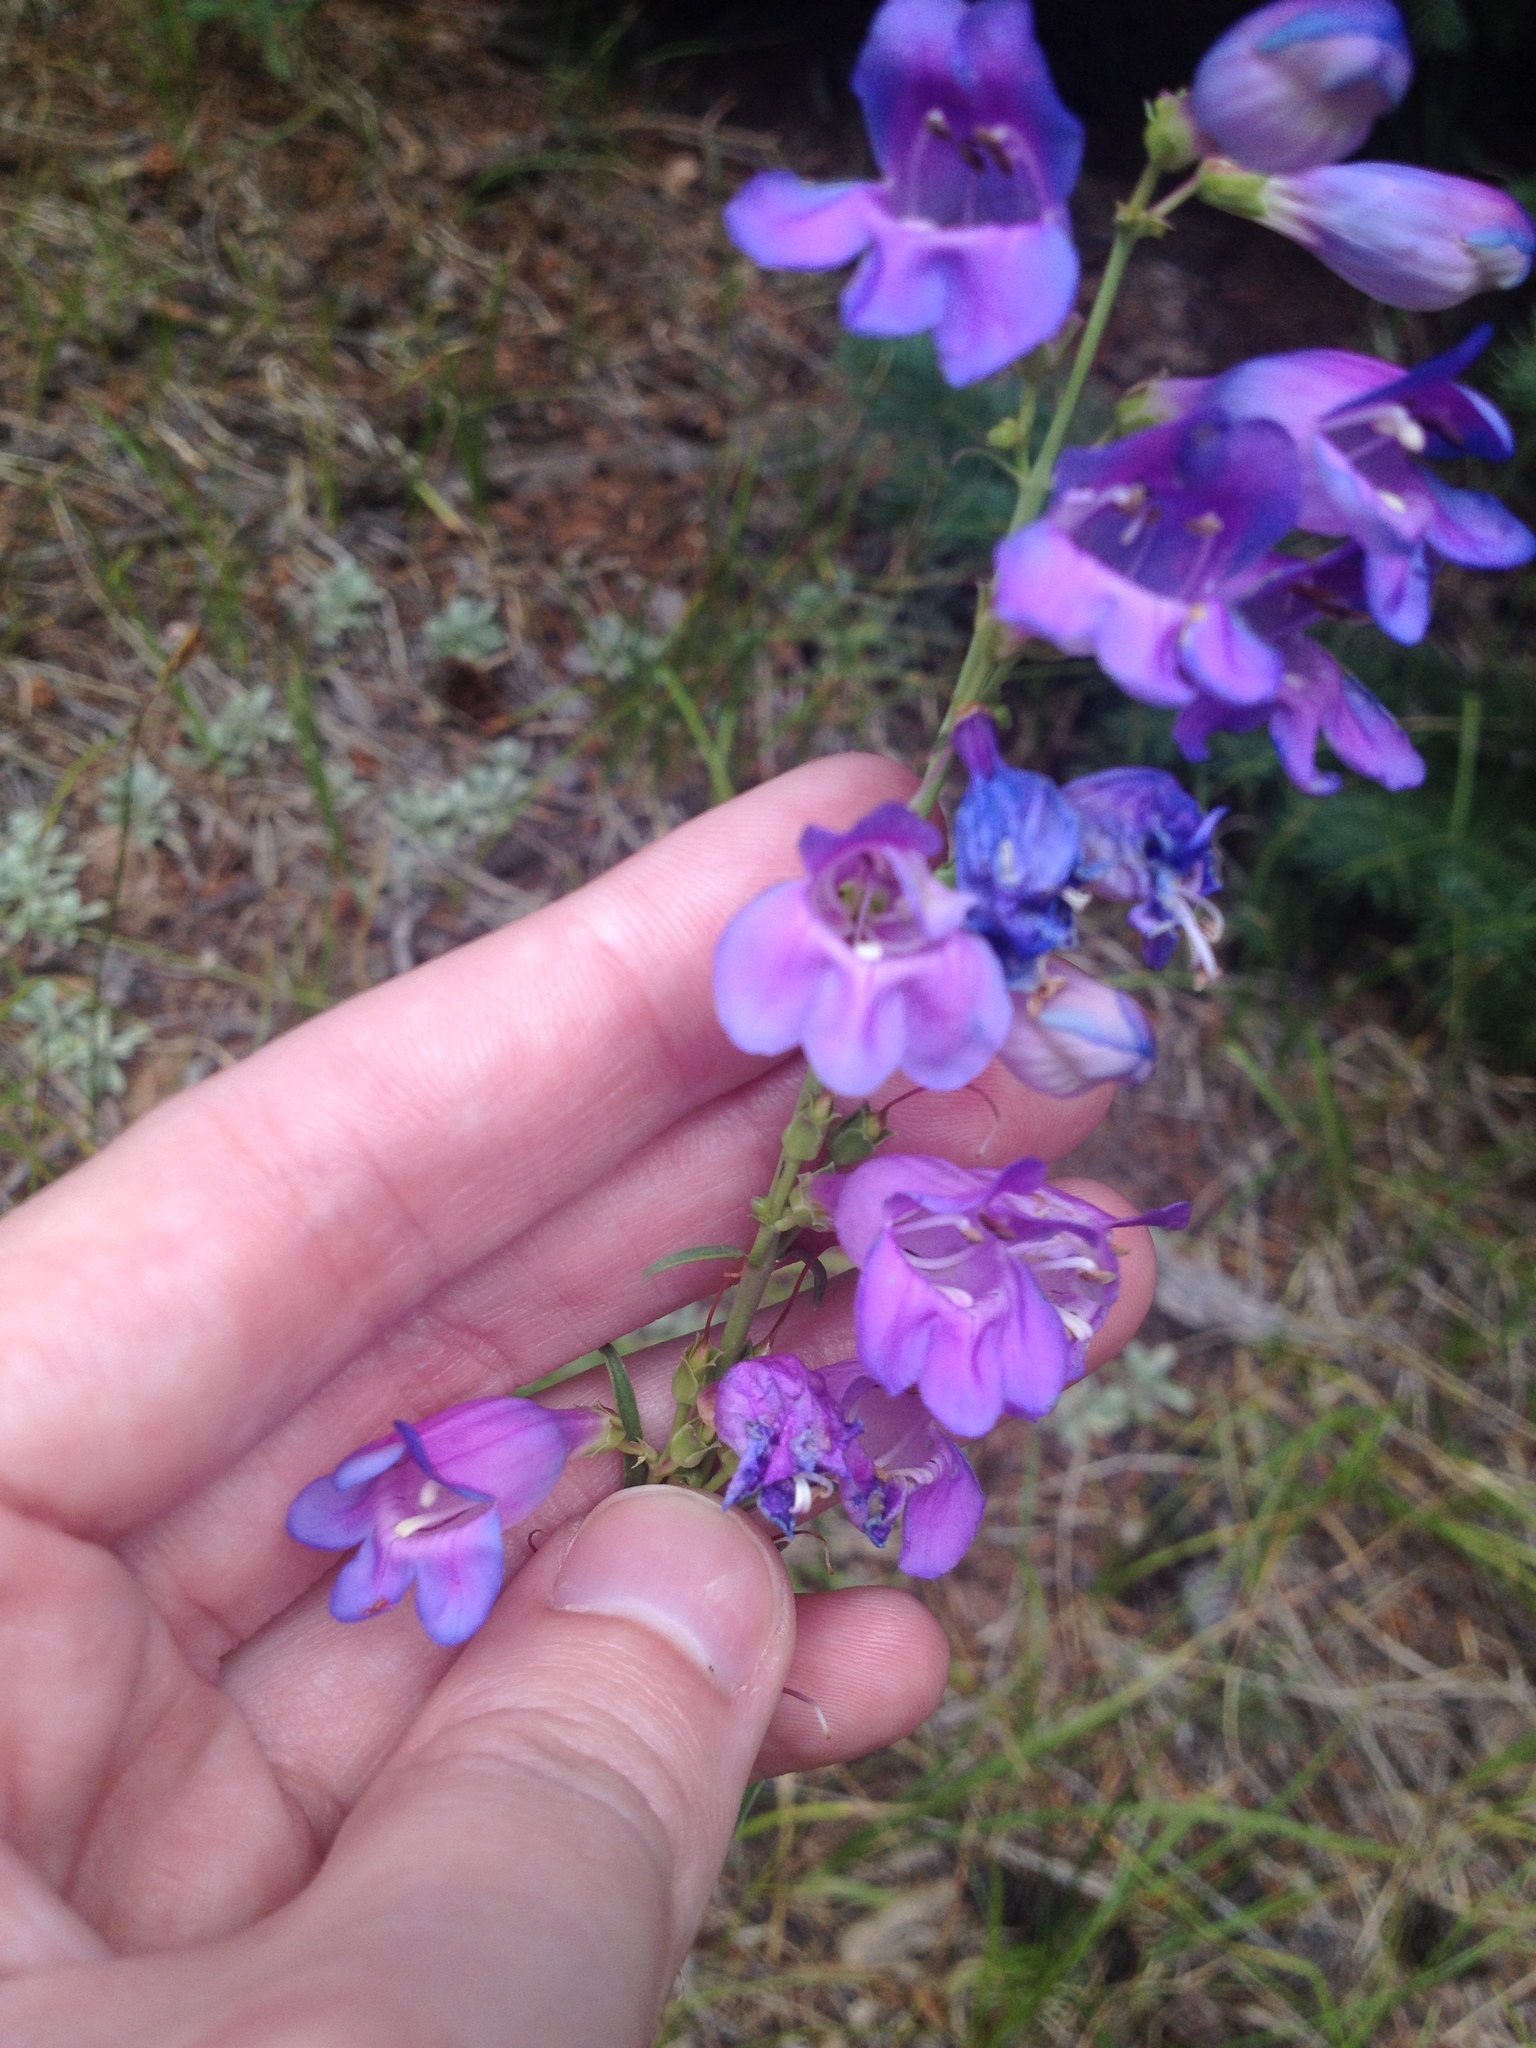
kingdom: Plantae
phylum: Tracheophyta
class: Magnoliopsida
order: Lamiales
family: Plantaginaceae
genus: Penstemon
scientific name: Penstemon virgatus
